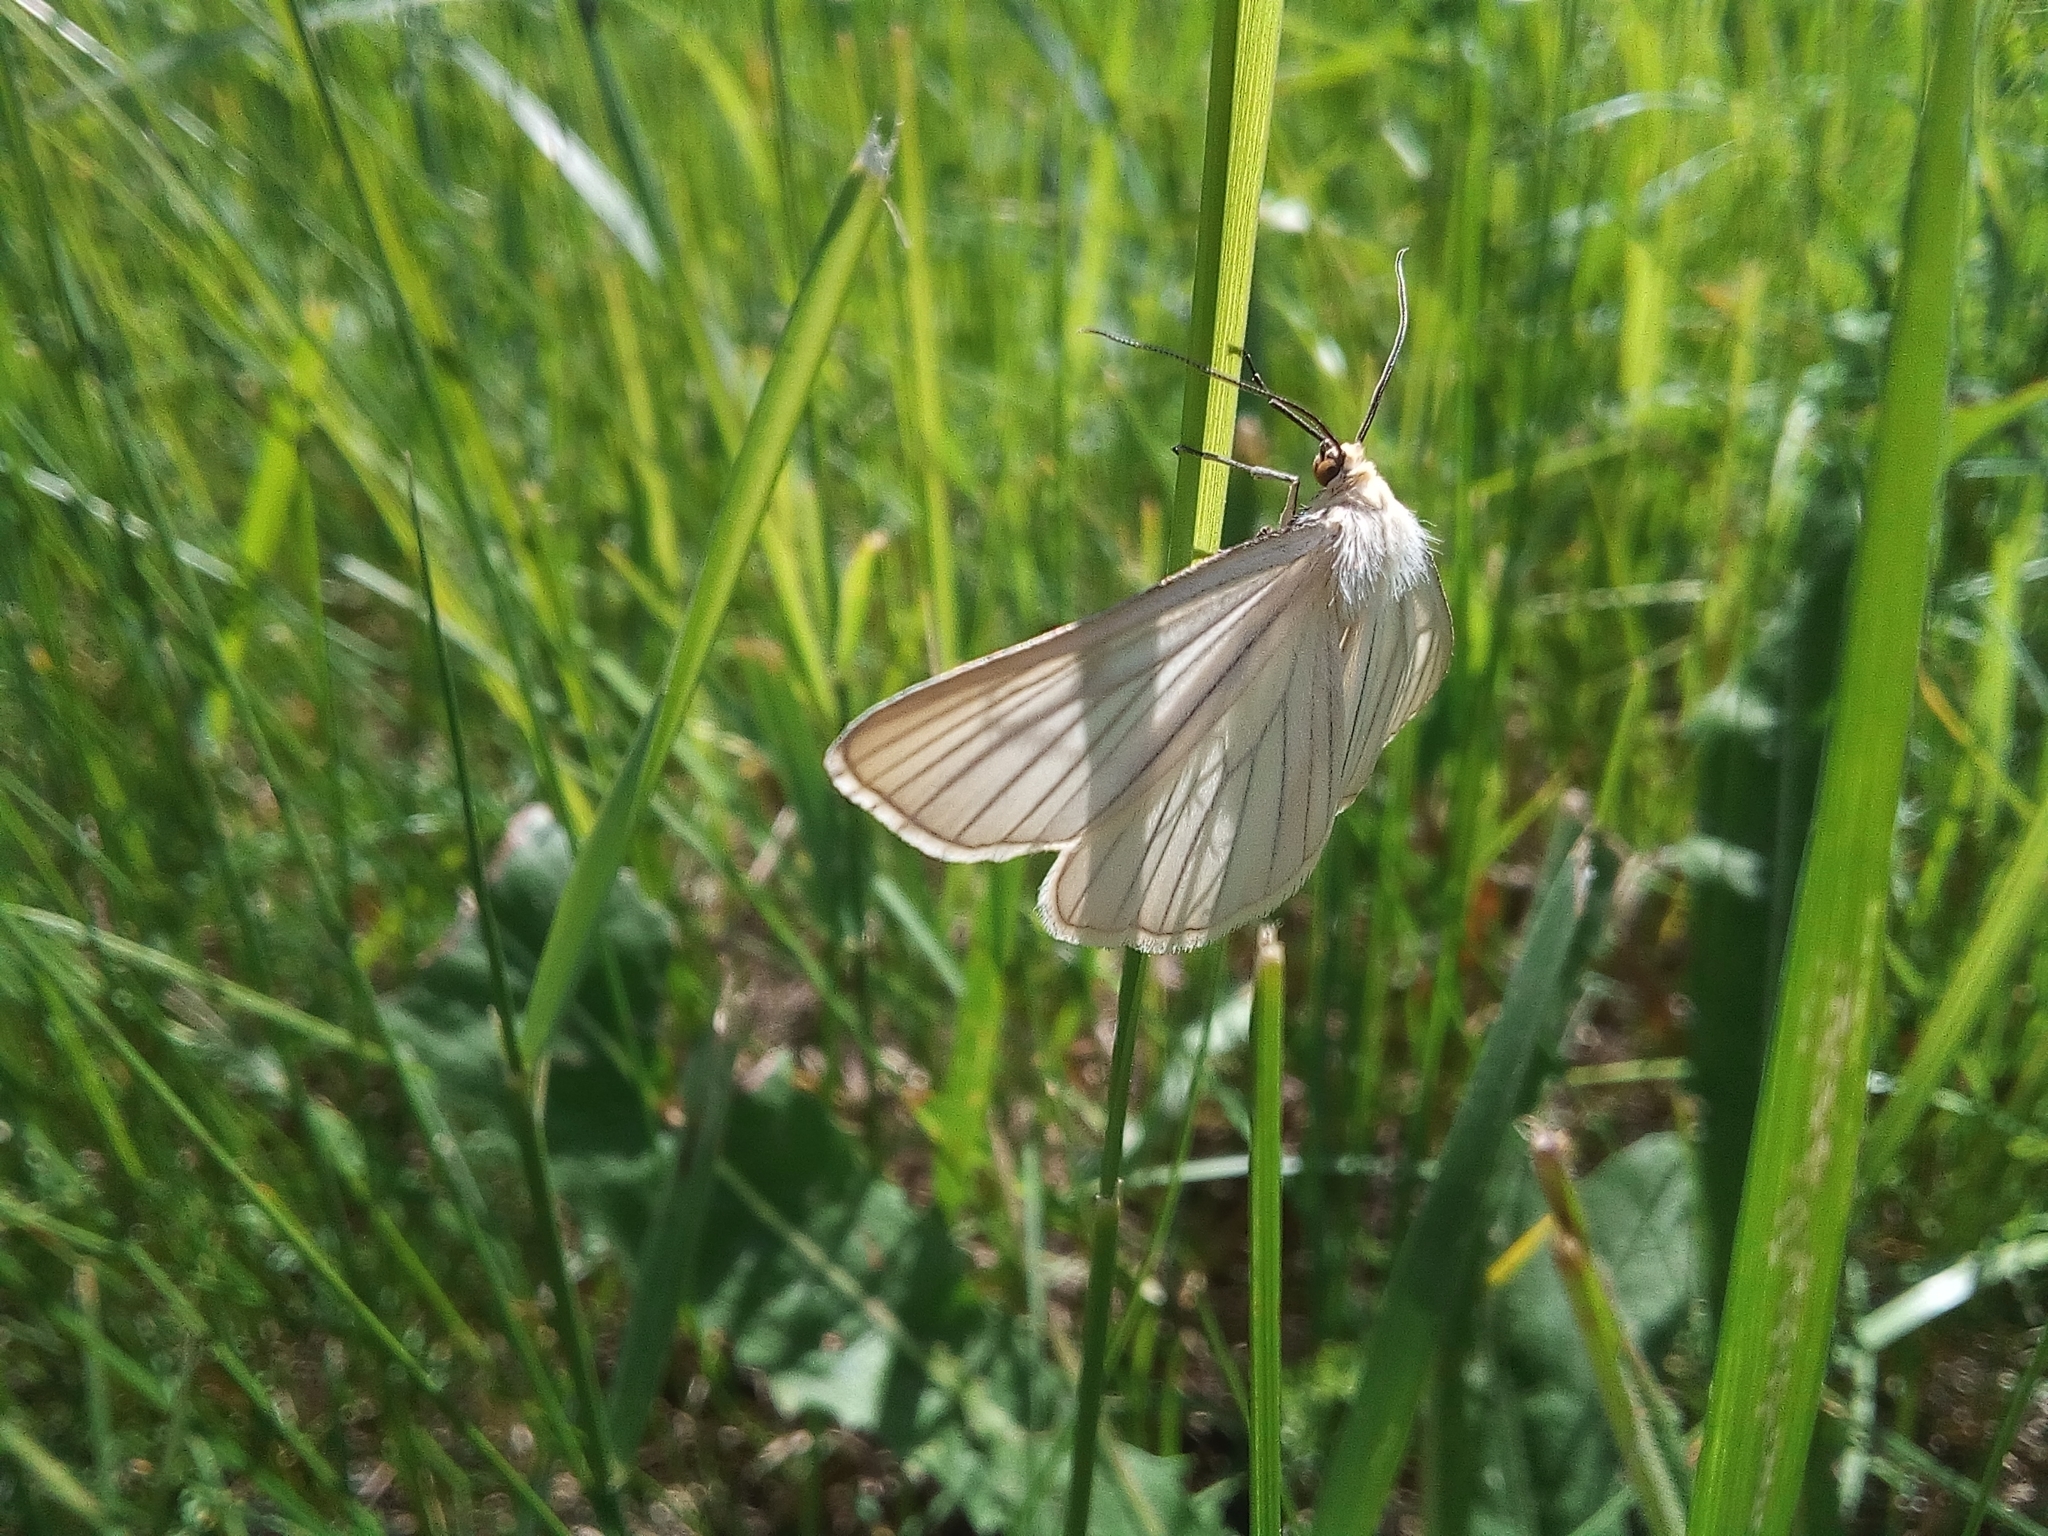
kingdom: Animalia
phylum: Arthropoda
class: Insecta
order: Lepidoptera
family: Geometridae
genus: Siona
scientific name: Siona lineata
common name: Black-veined moth
